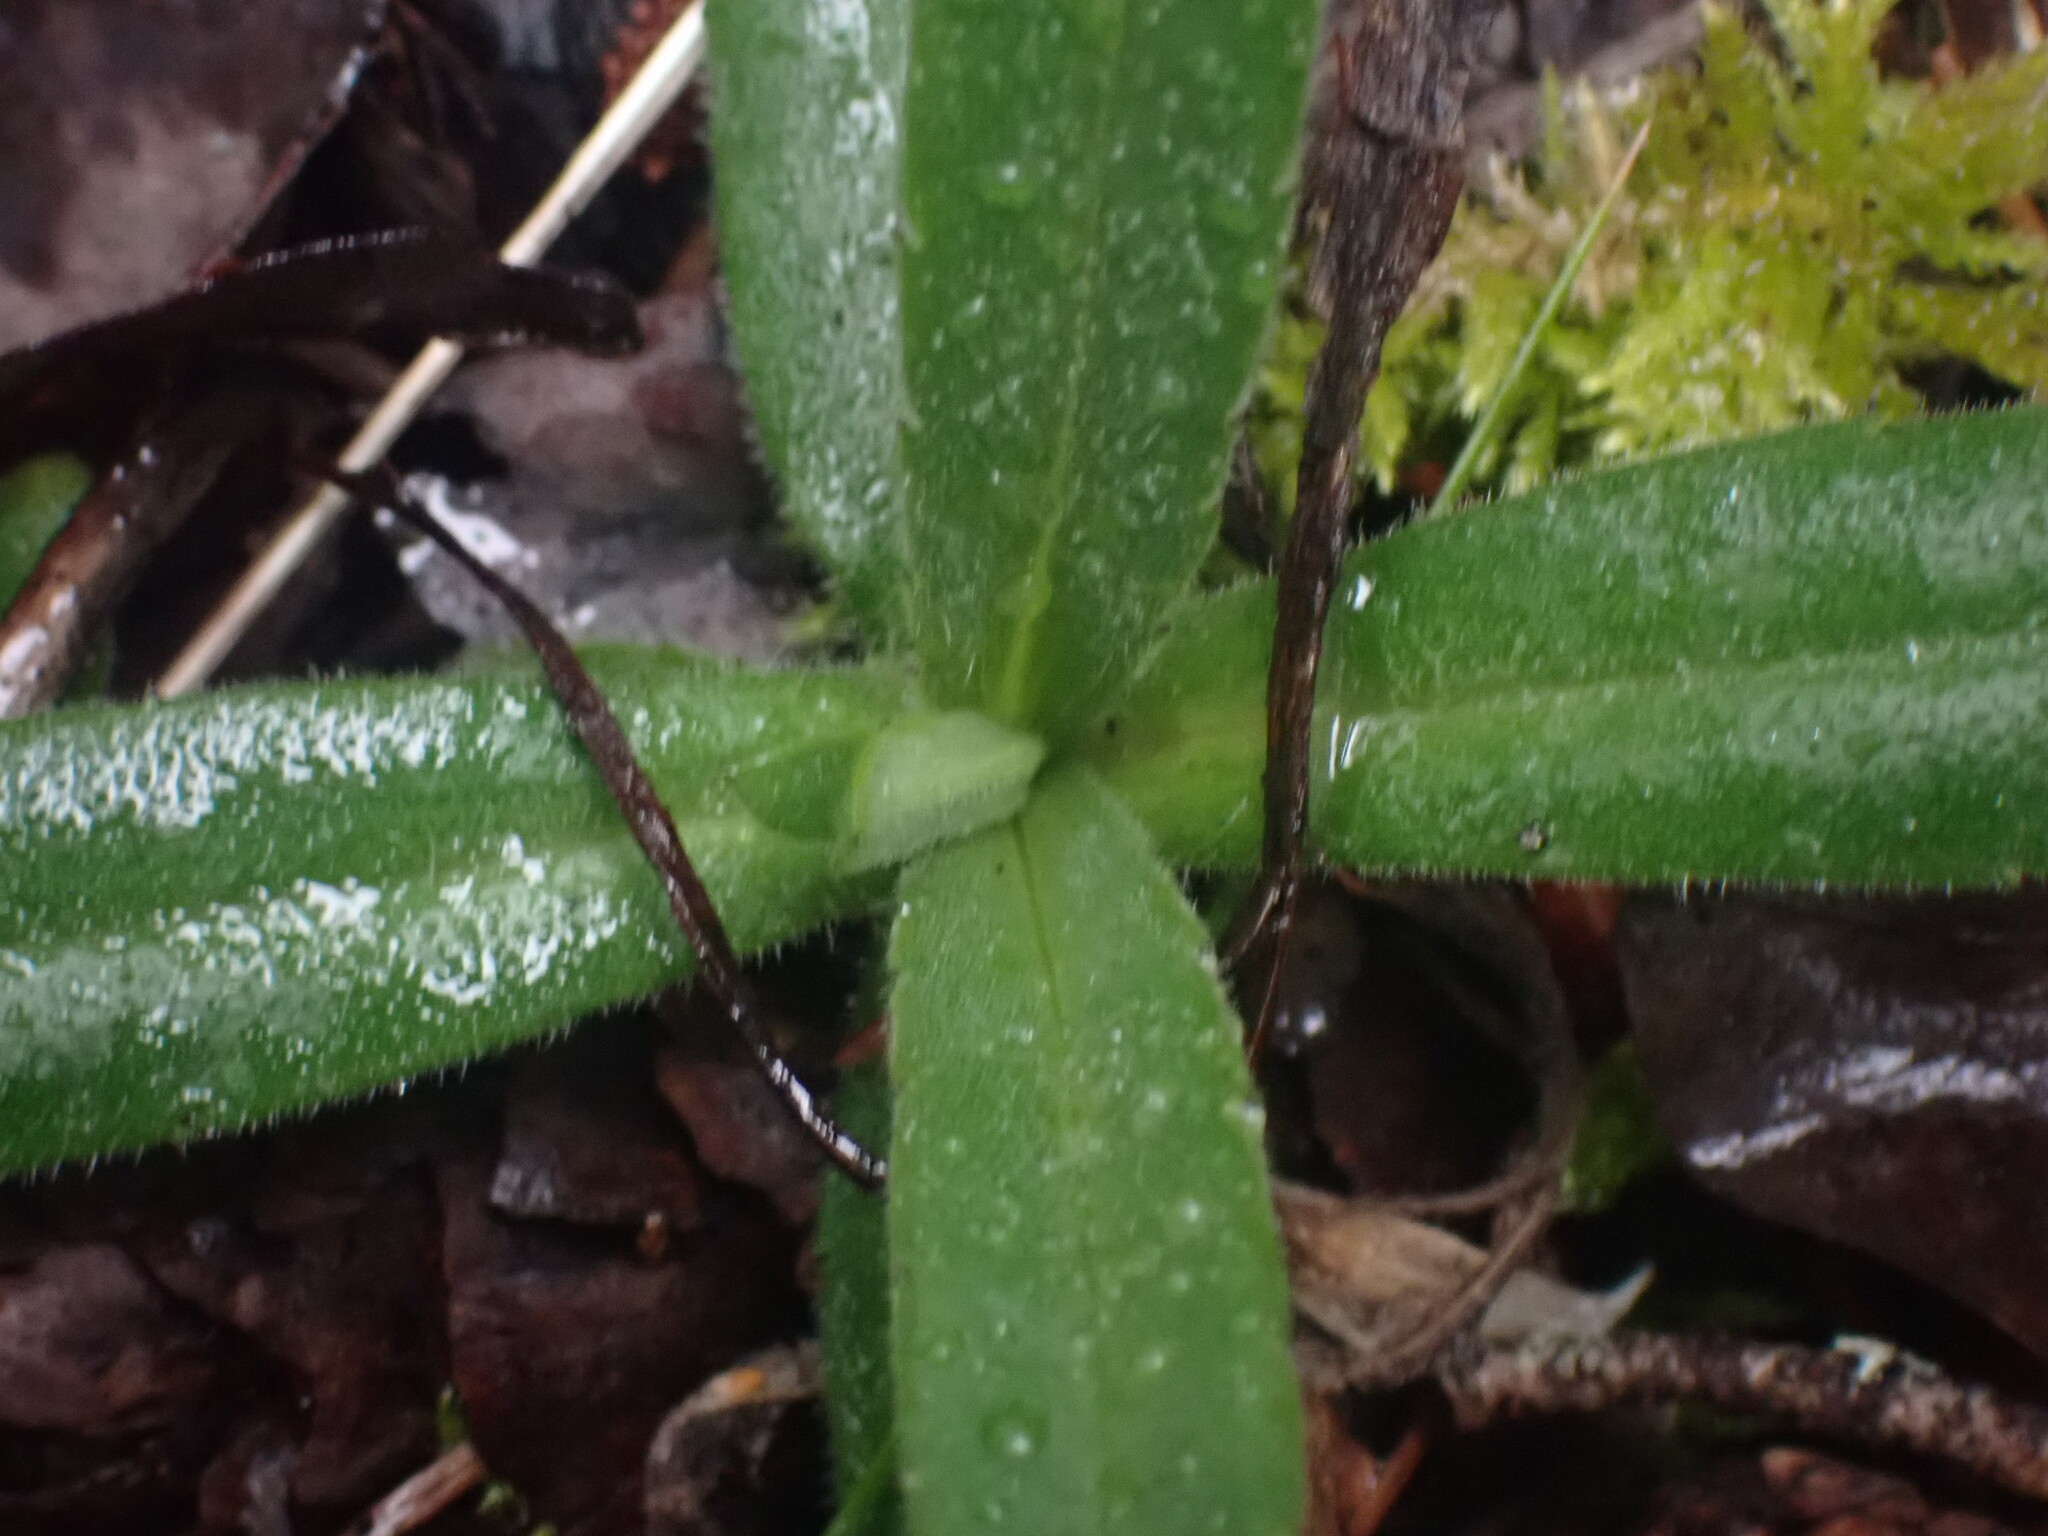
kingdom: Plantae
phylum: Tracheophyta
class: Magnoliopsida
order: Asterales
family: Asteraceae
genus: Anisocarpus
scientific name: Anisocarpus madioides
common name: Woodland madia
